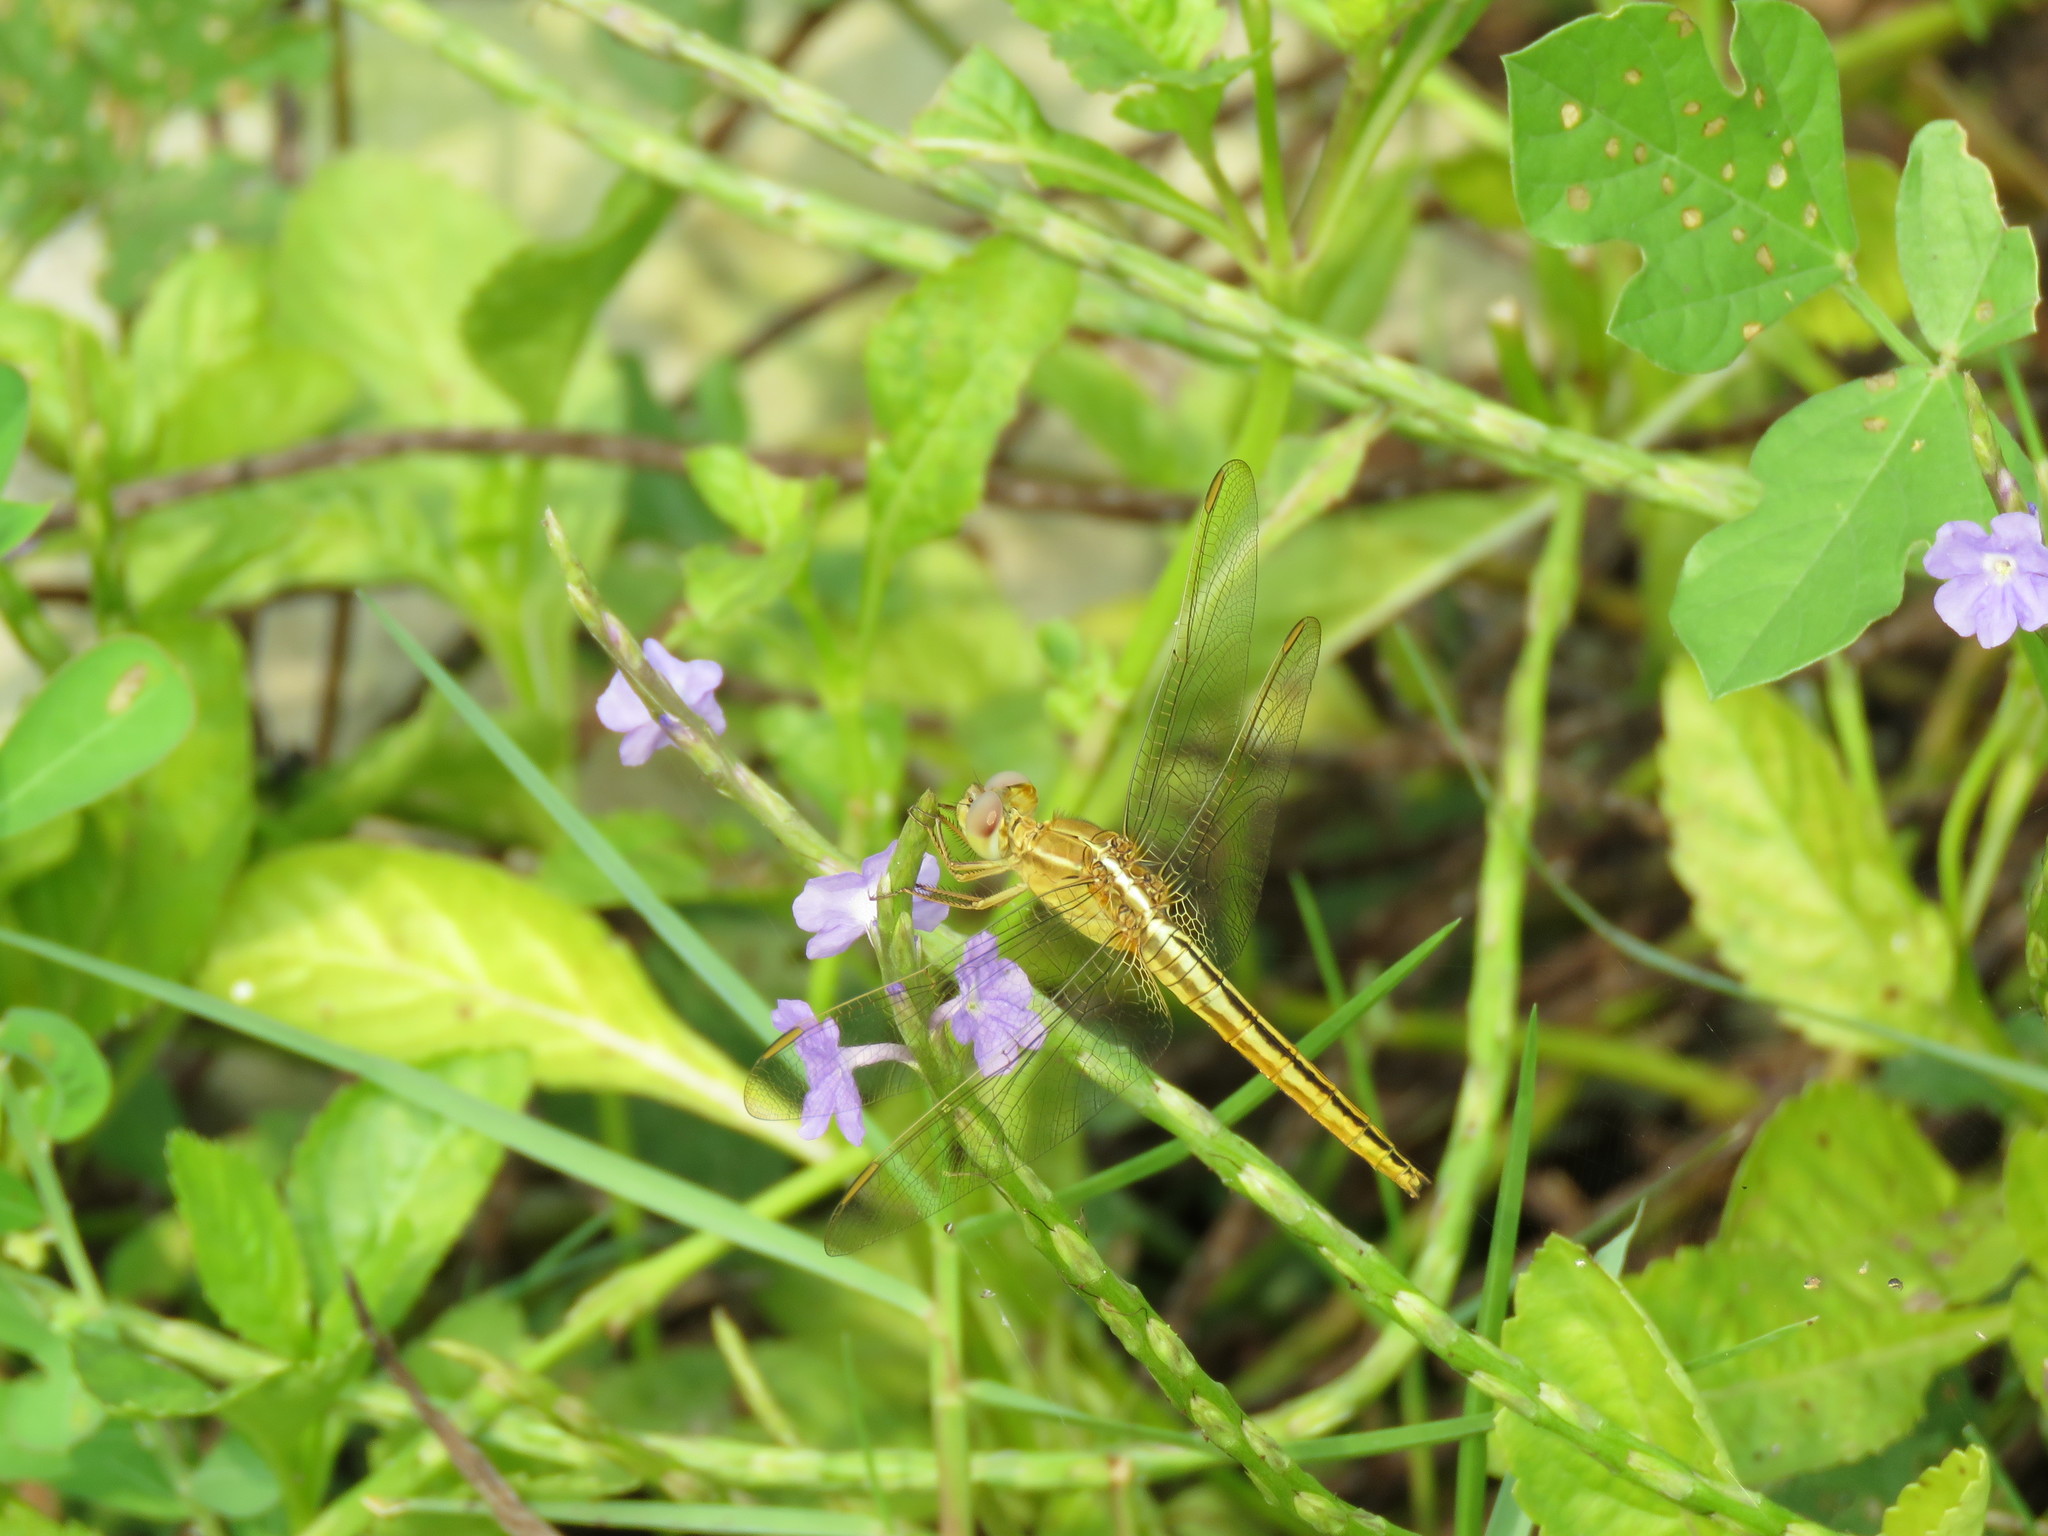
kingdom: Animalia
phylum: Arthropoda
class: Insecta
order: Odonata
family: Libellulidae
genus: Crocothemis
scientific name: Crocothemis servilia
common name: Scarlet skimmer
